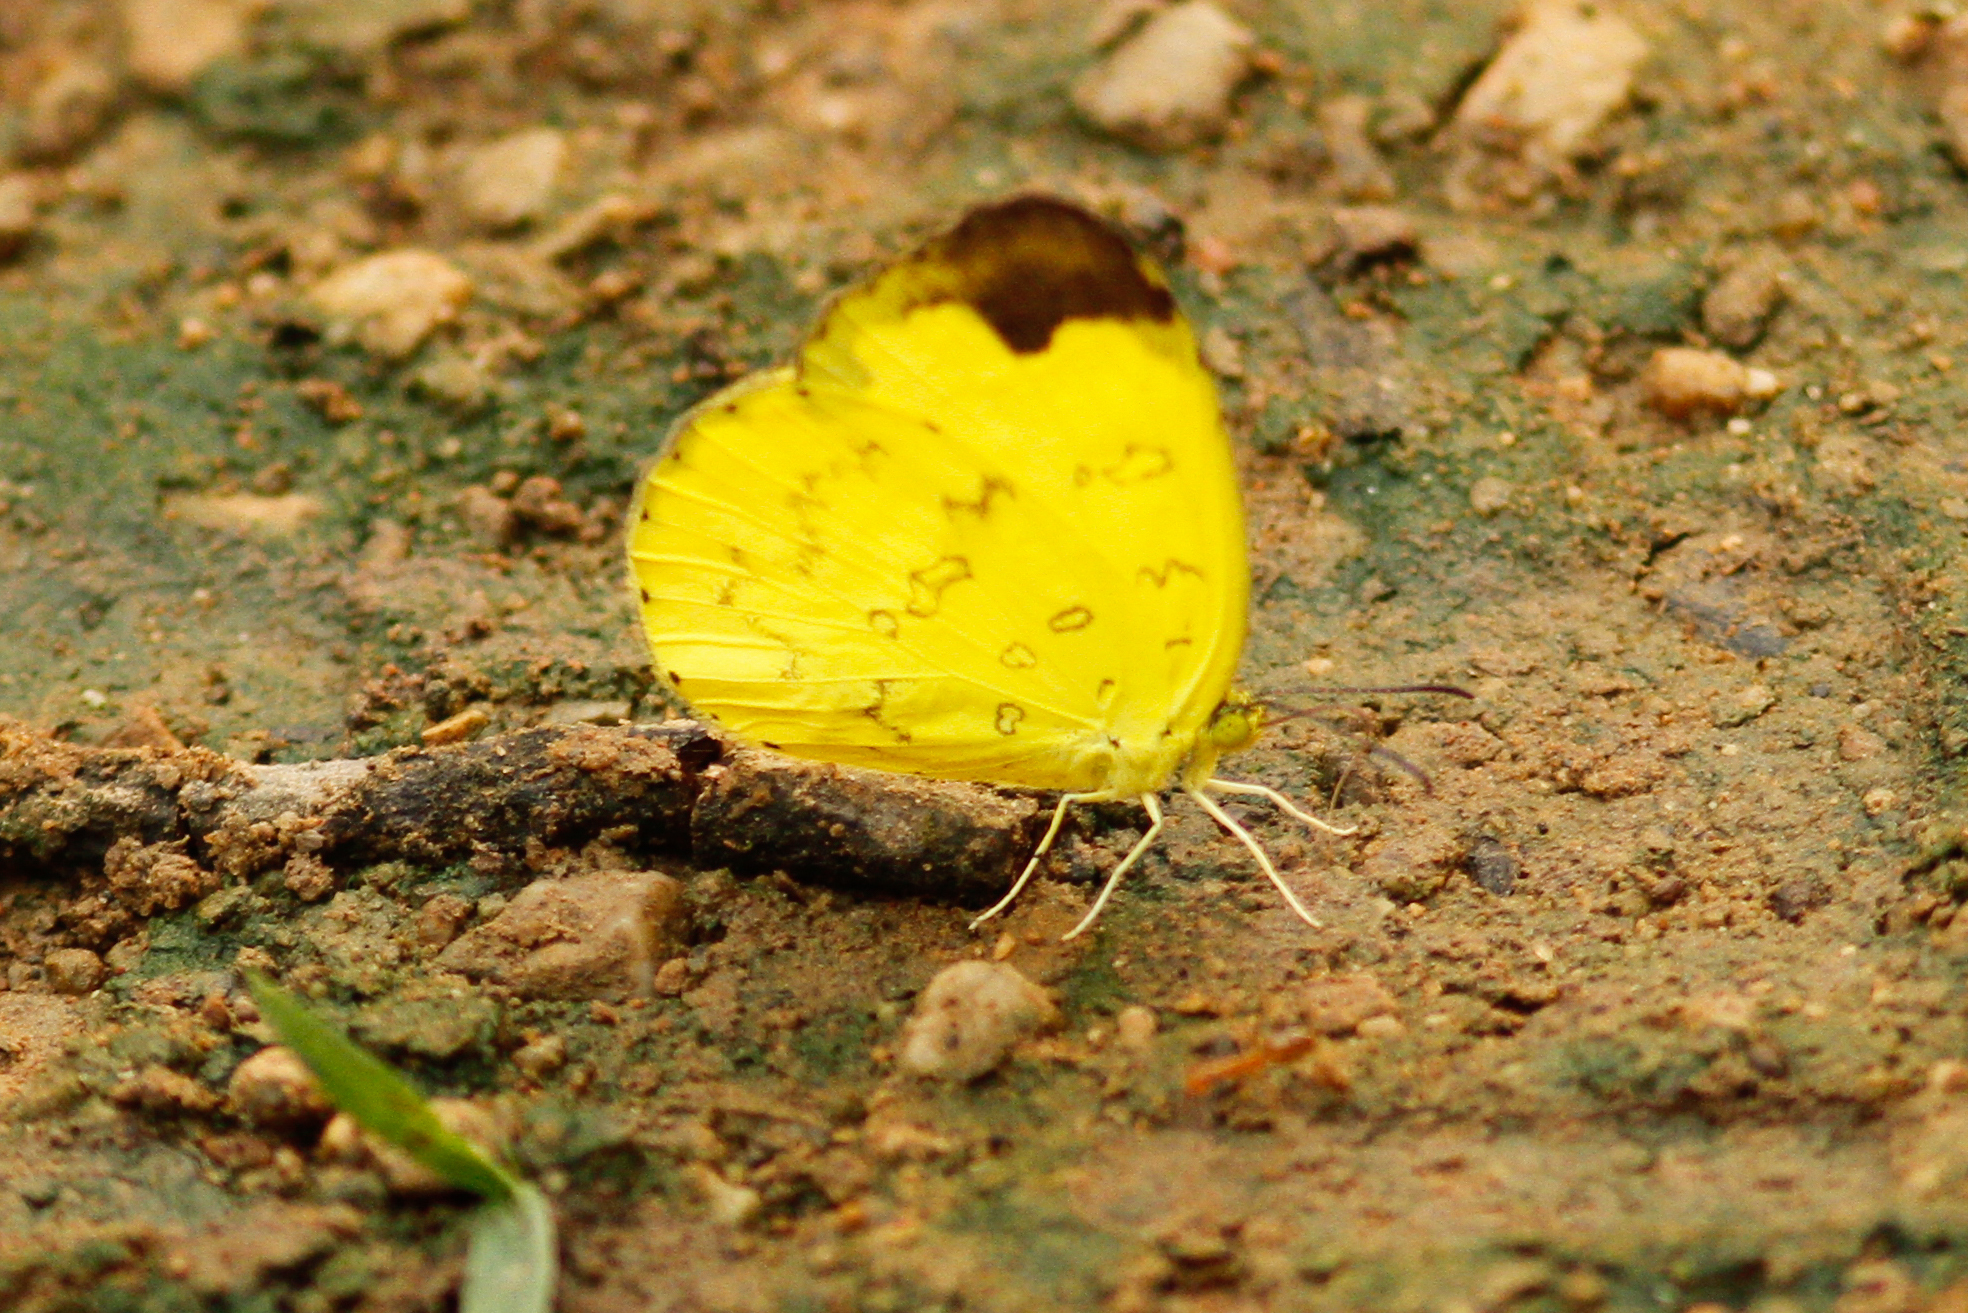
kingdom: Animalia
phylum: Arthropoda
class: Insecta
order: Lepidoptera
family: Pieridae
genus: Eurema
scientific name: Eurema simulatrix
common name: Hill grass yellow
